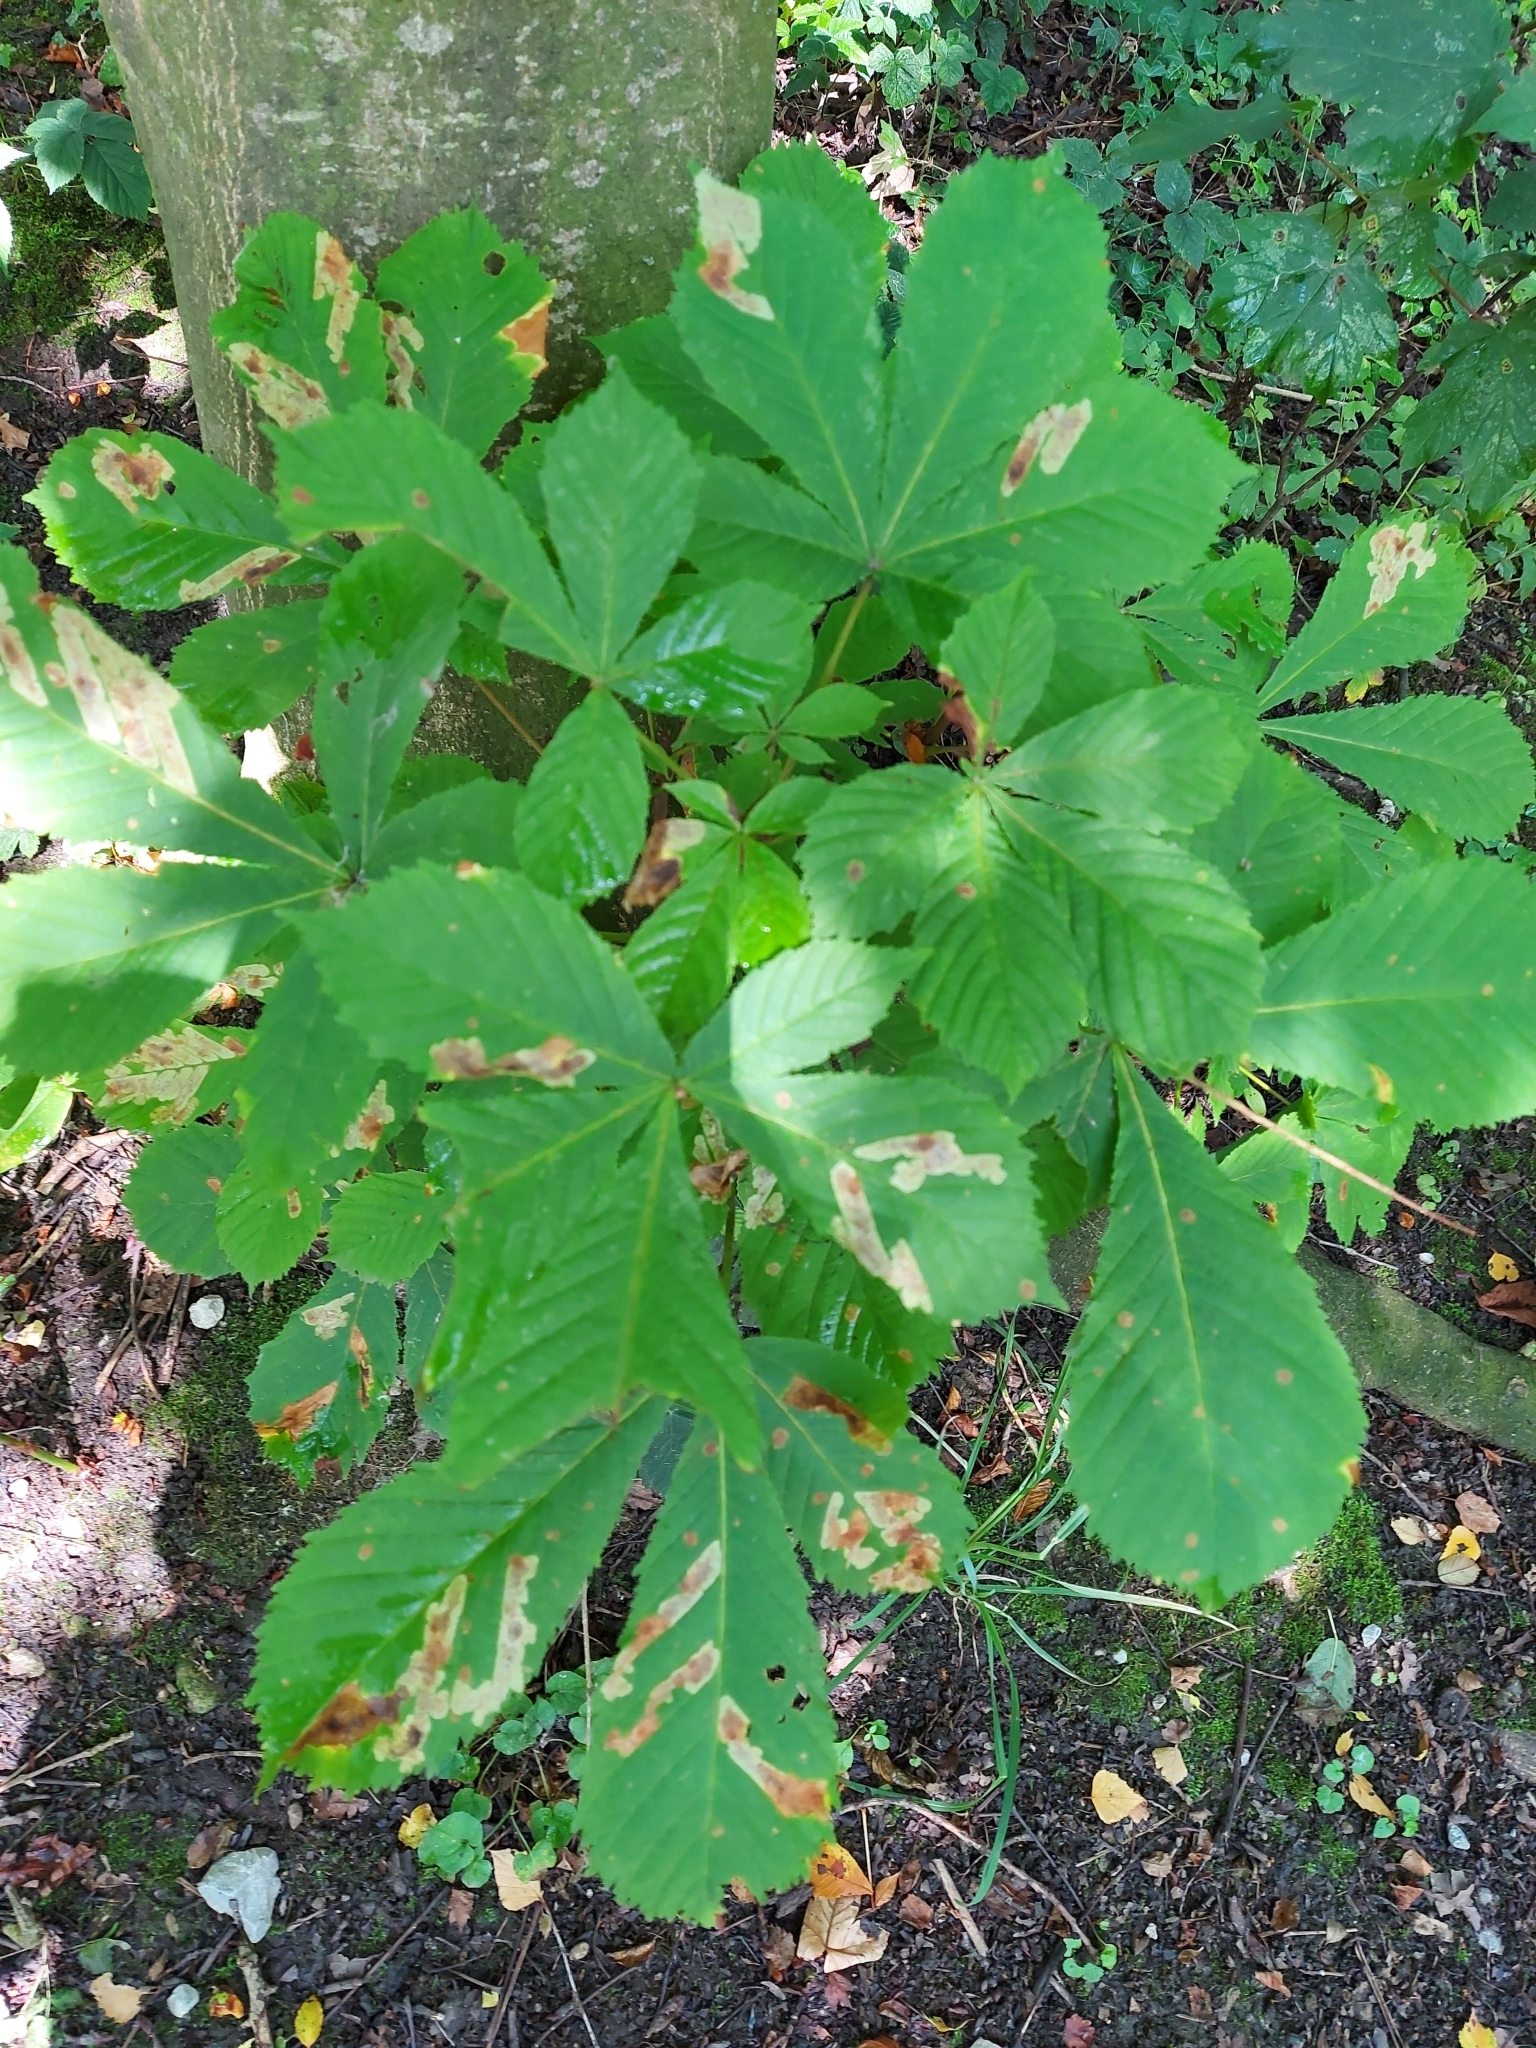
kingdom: Animalia
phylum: Arthropoda
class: Insecta
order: Lepidoptera
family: Gracillariidae
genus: Cameraria
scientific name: Cameraria ohridella
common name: Horse-chestnut leaf-miner
